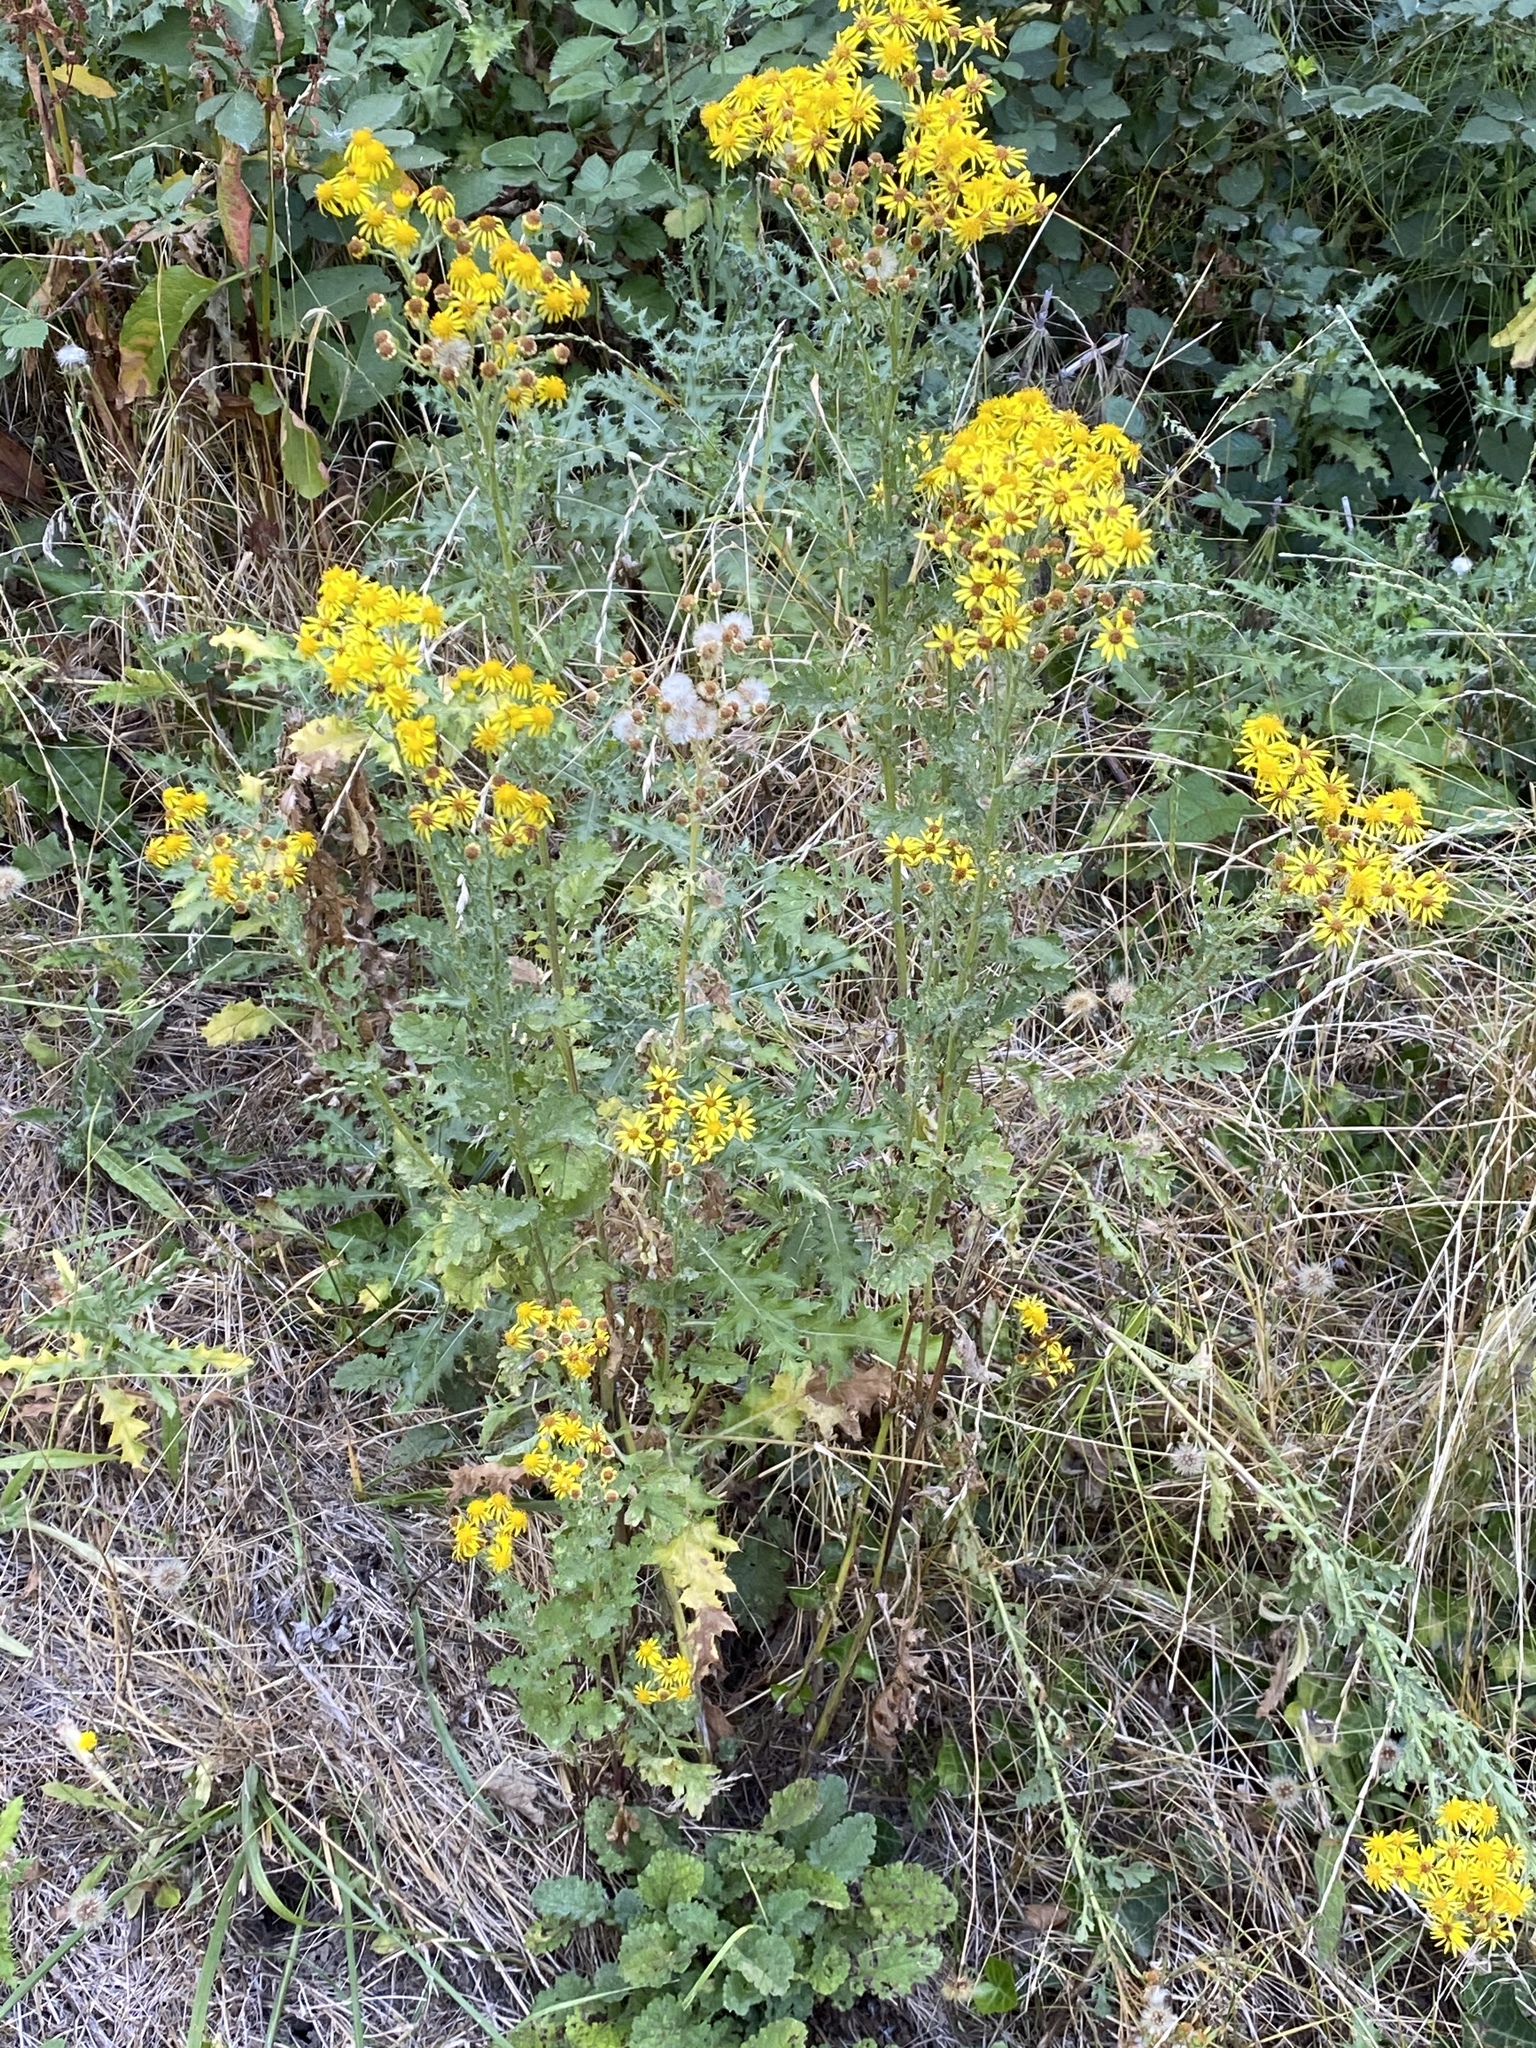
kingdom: Plantae
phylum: Tracheophyta
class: Magnoliopsida
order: Asterales
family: Asteraceae
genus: Jacobaea
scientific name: Jacobaea vulgaris
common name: Stinking willie
